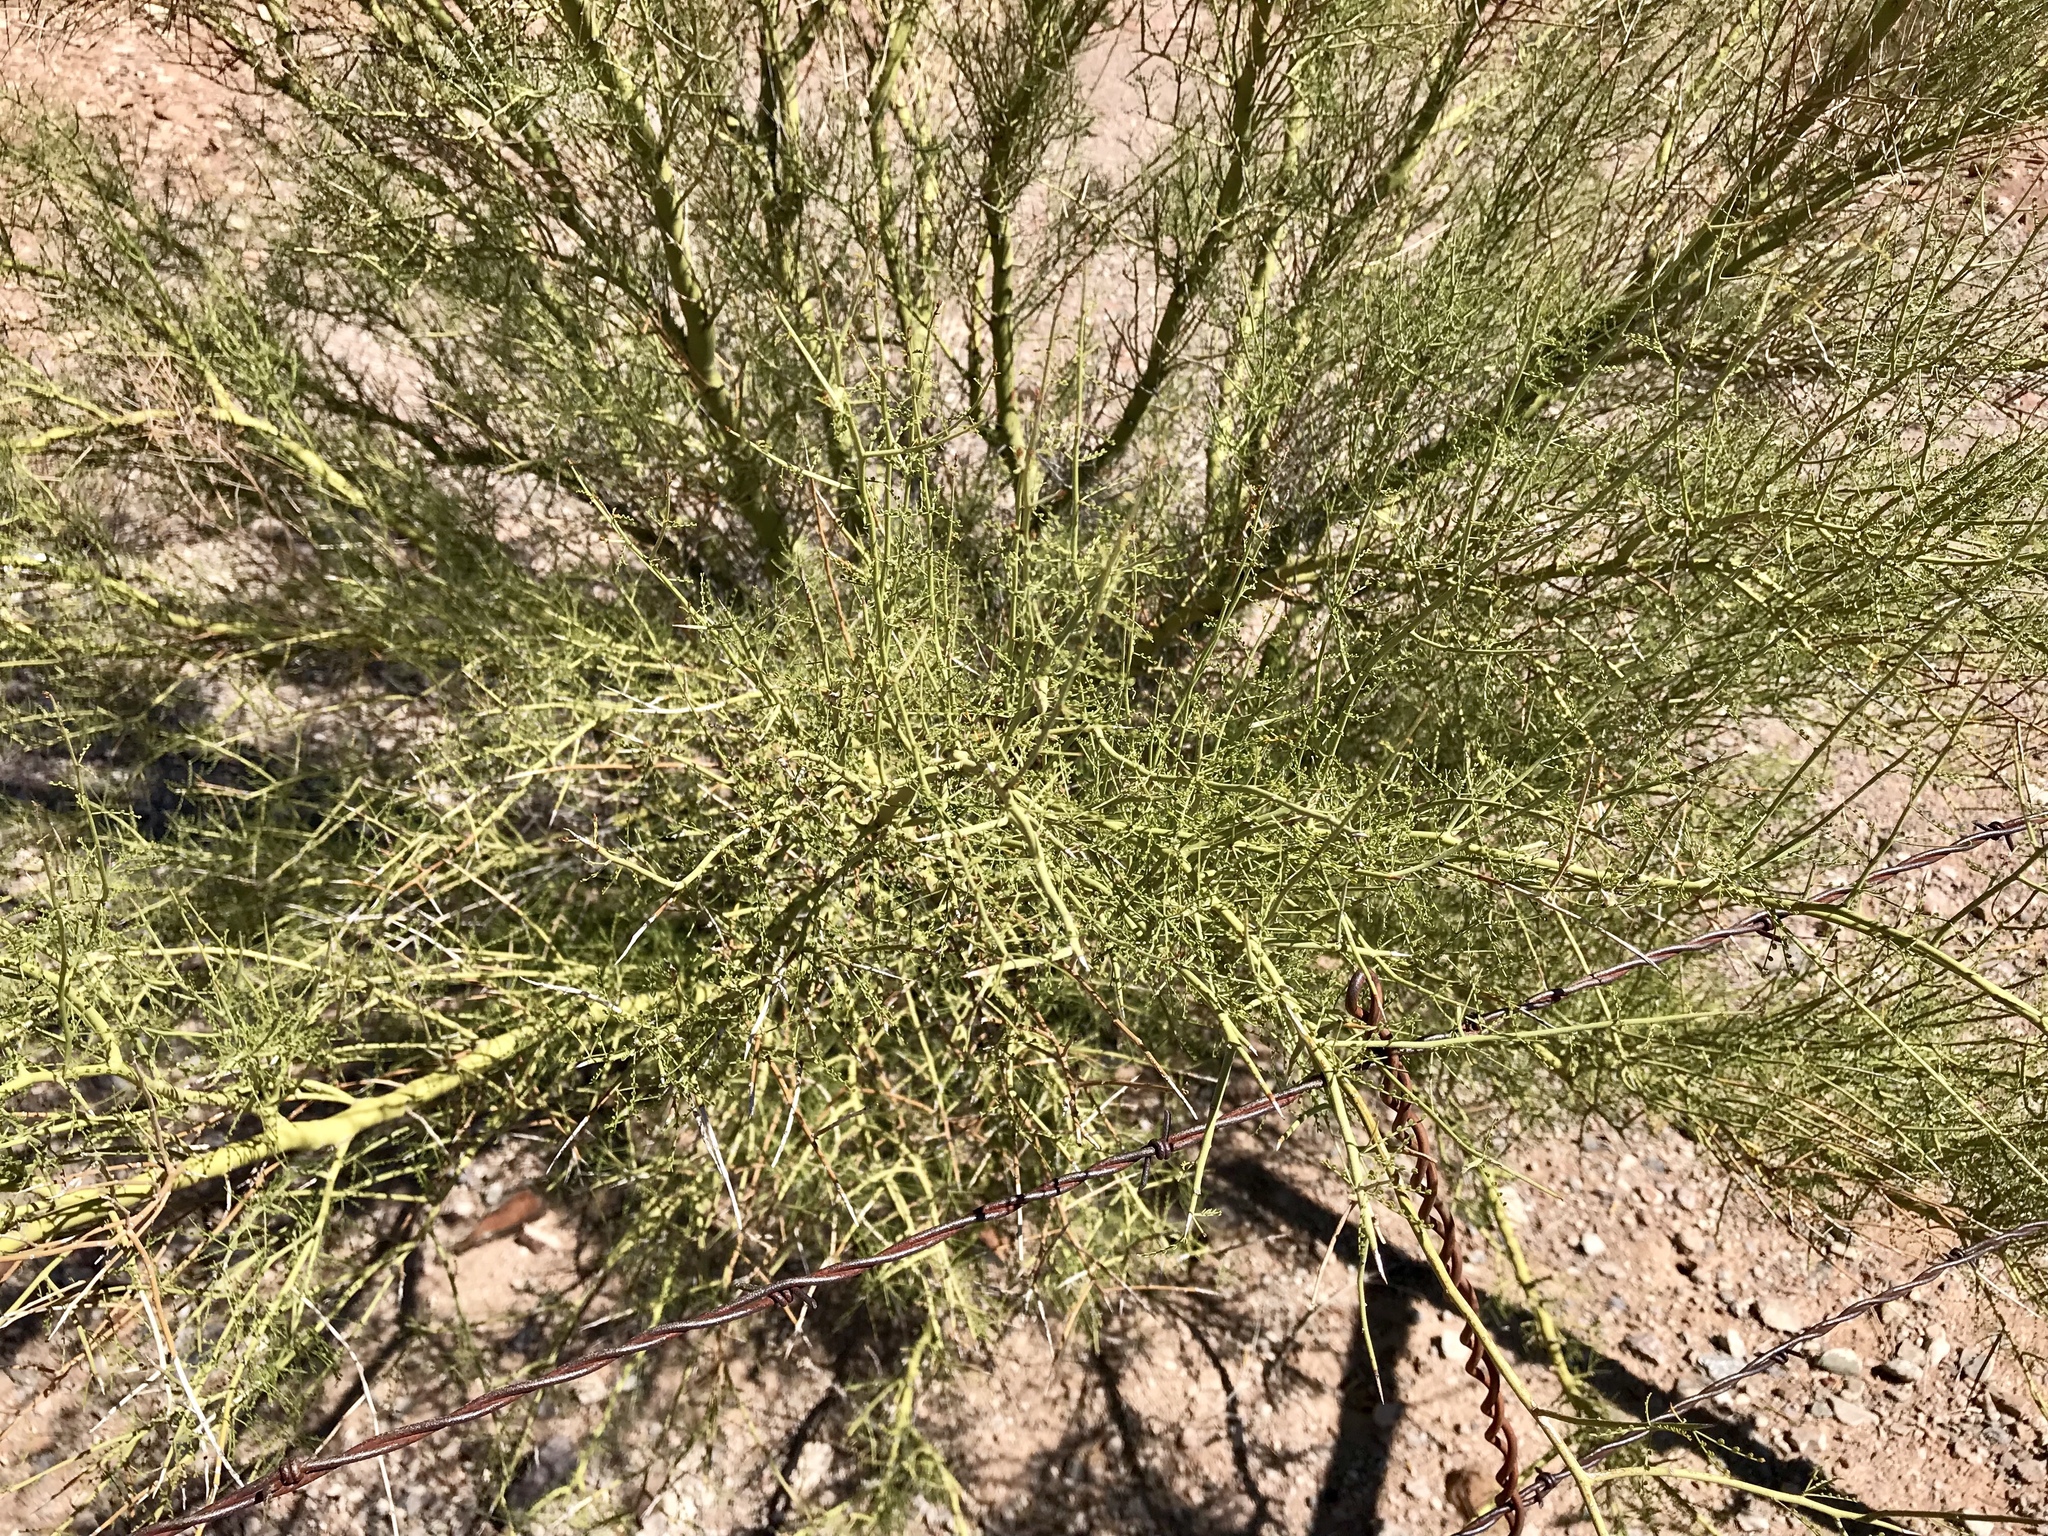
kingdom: Plantae
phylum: Tracheophyta
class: Magnoliopsida
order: Fabales
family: Fabaceae
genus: Parkinsonia
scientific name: Parkinsonia microphylla
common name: Yellow paloverde
